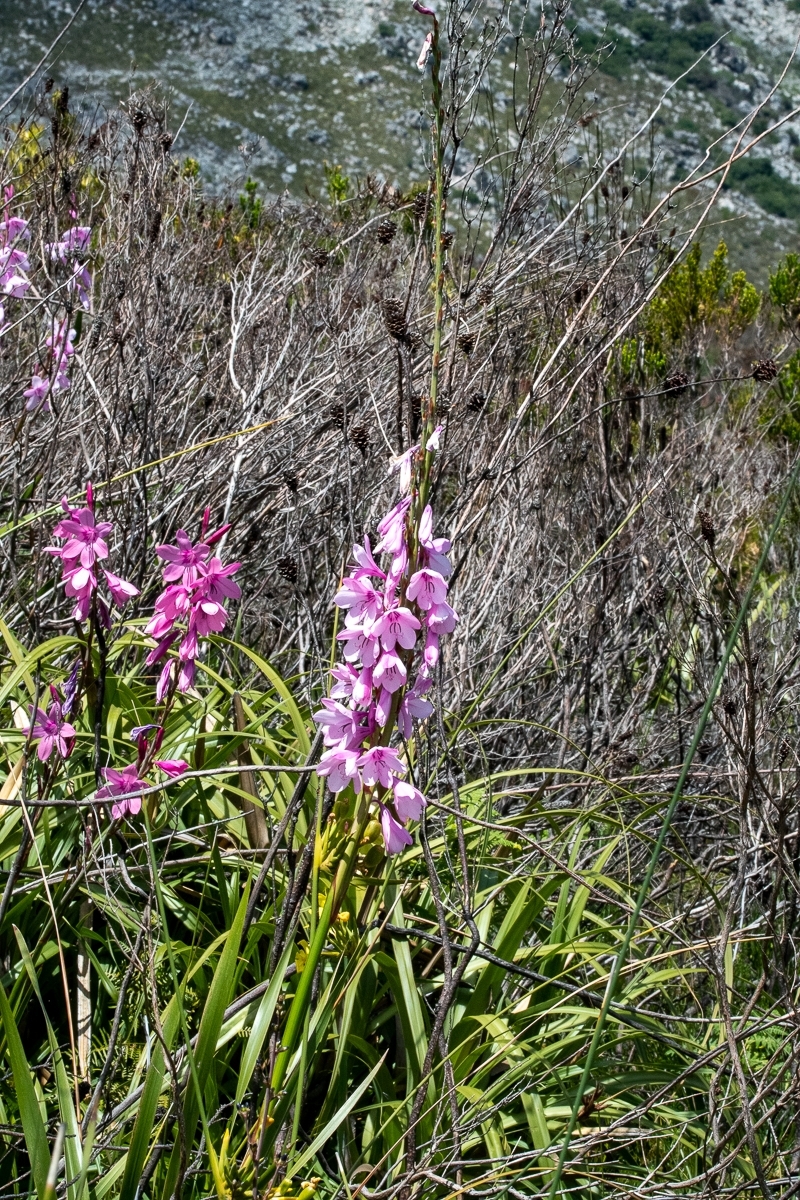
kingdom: Plantae
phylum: Tracheophyta
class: Liliopsida
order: Asparagales
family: Iridaceae
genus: Watsonia
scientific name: Watsonia borbonica
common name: Bugle-lily
